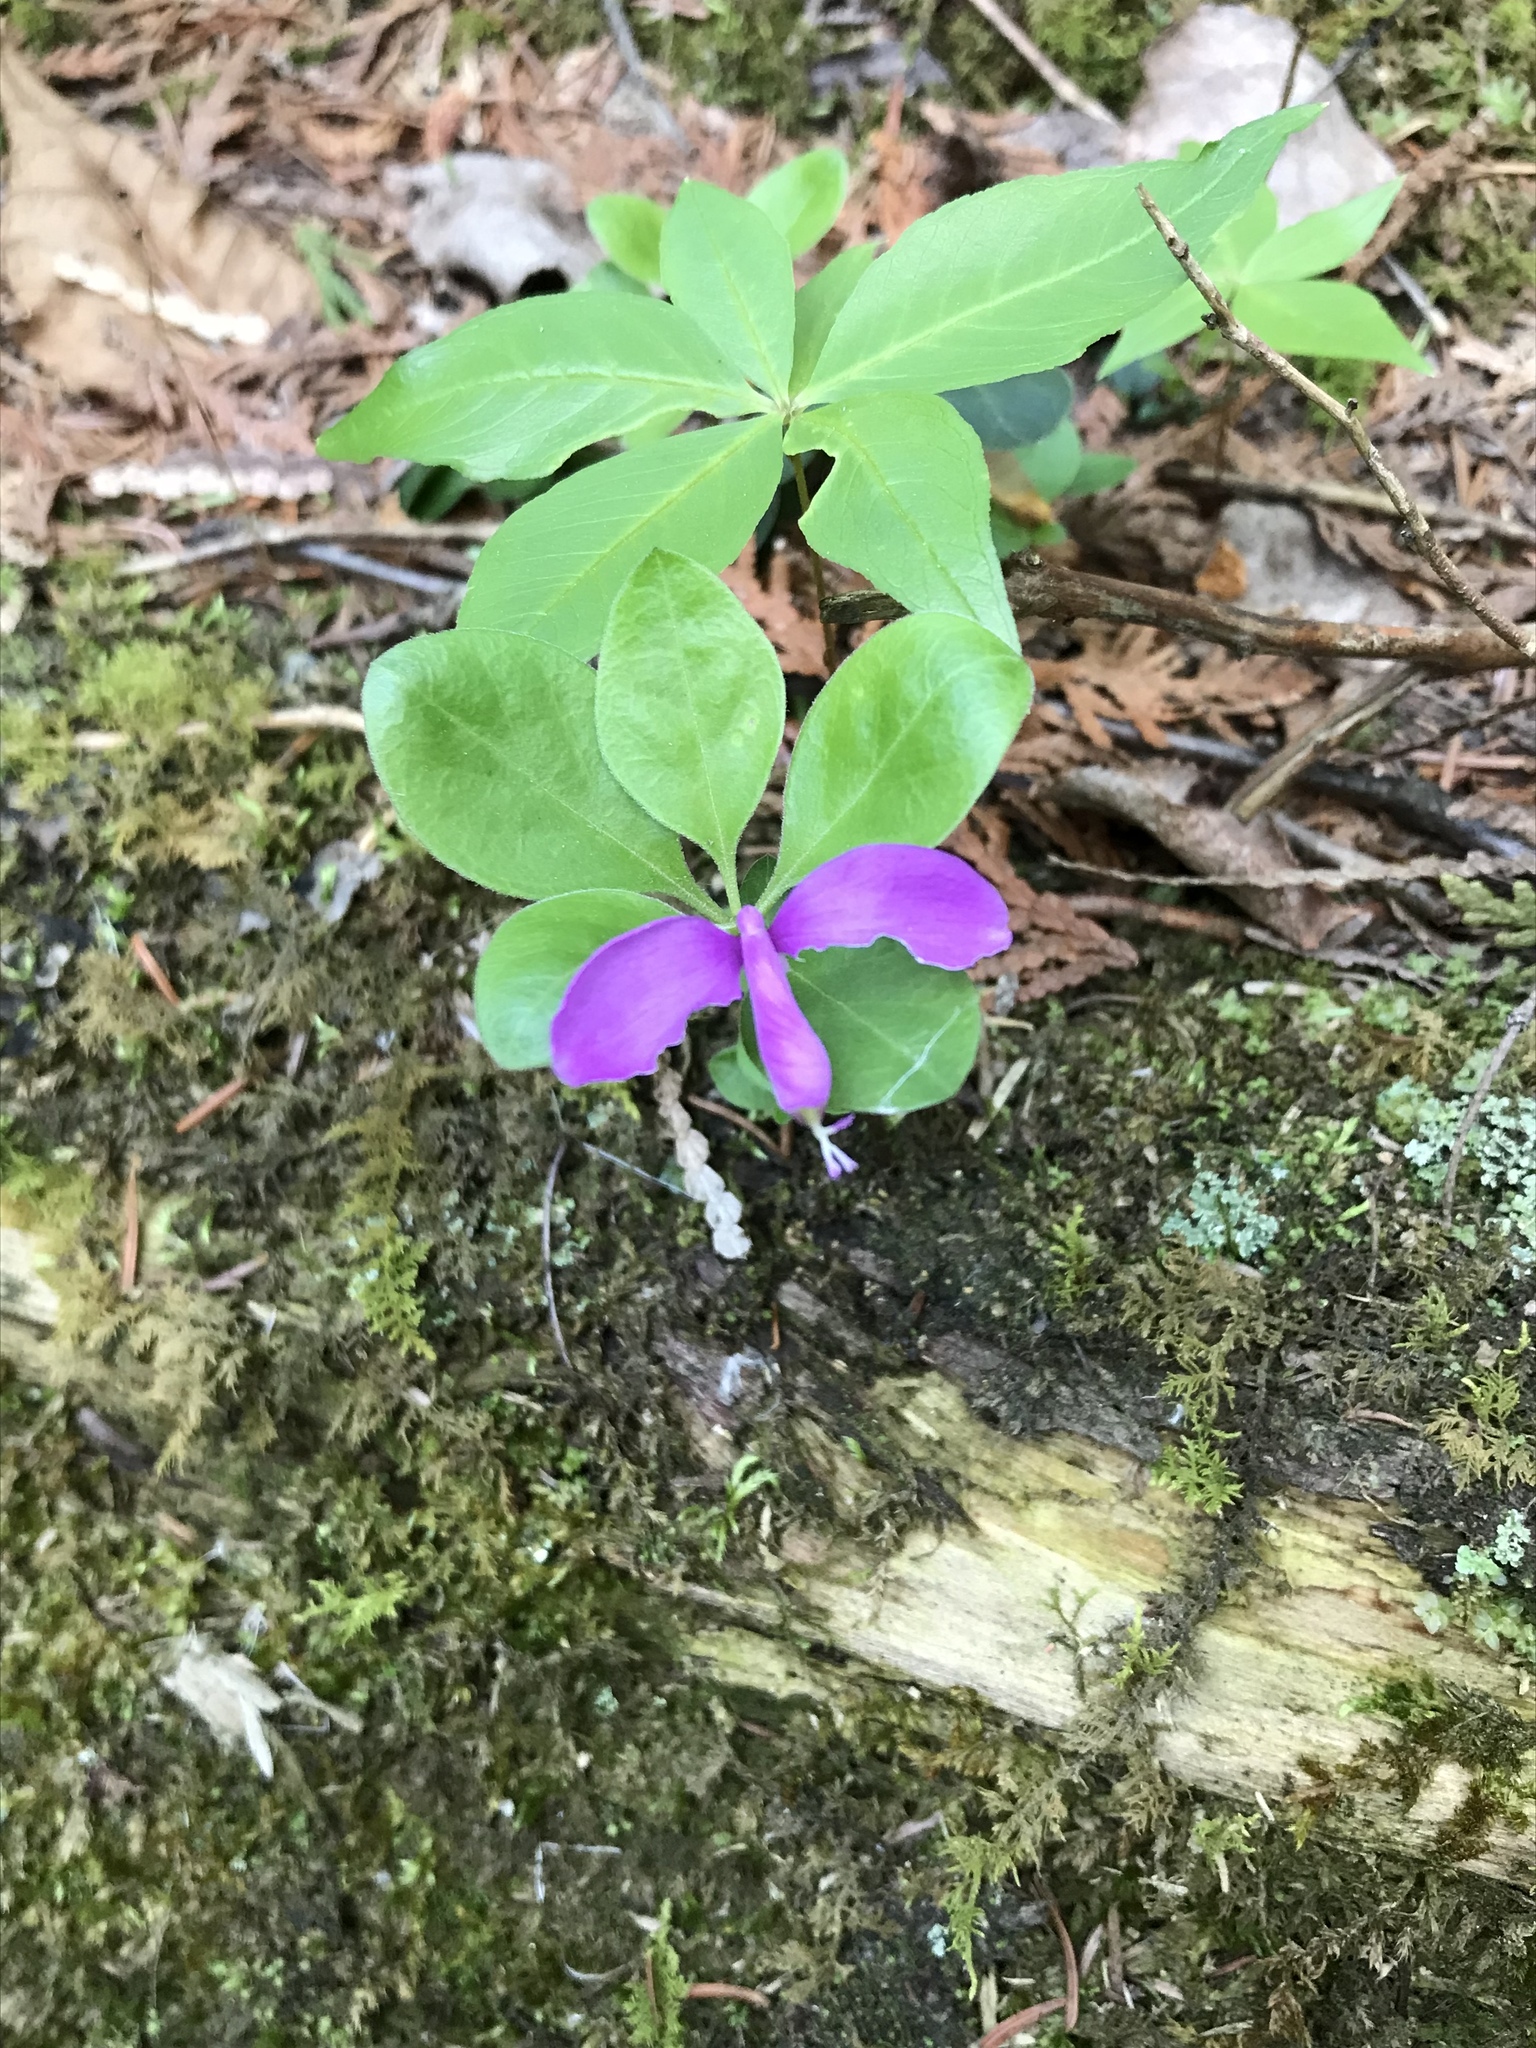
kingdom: Plantae
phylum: Tracheophyta
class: Magnoliopsida
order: Fabales
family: Polygalaceae
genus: Polygaloides
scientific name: Polygaloides paucifolia
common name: Bird-on-the-wing
